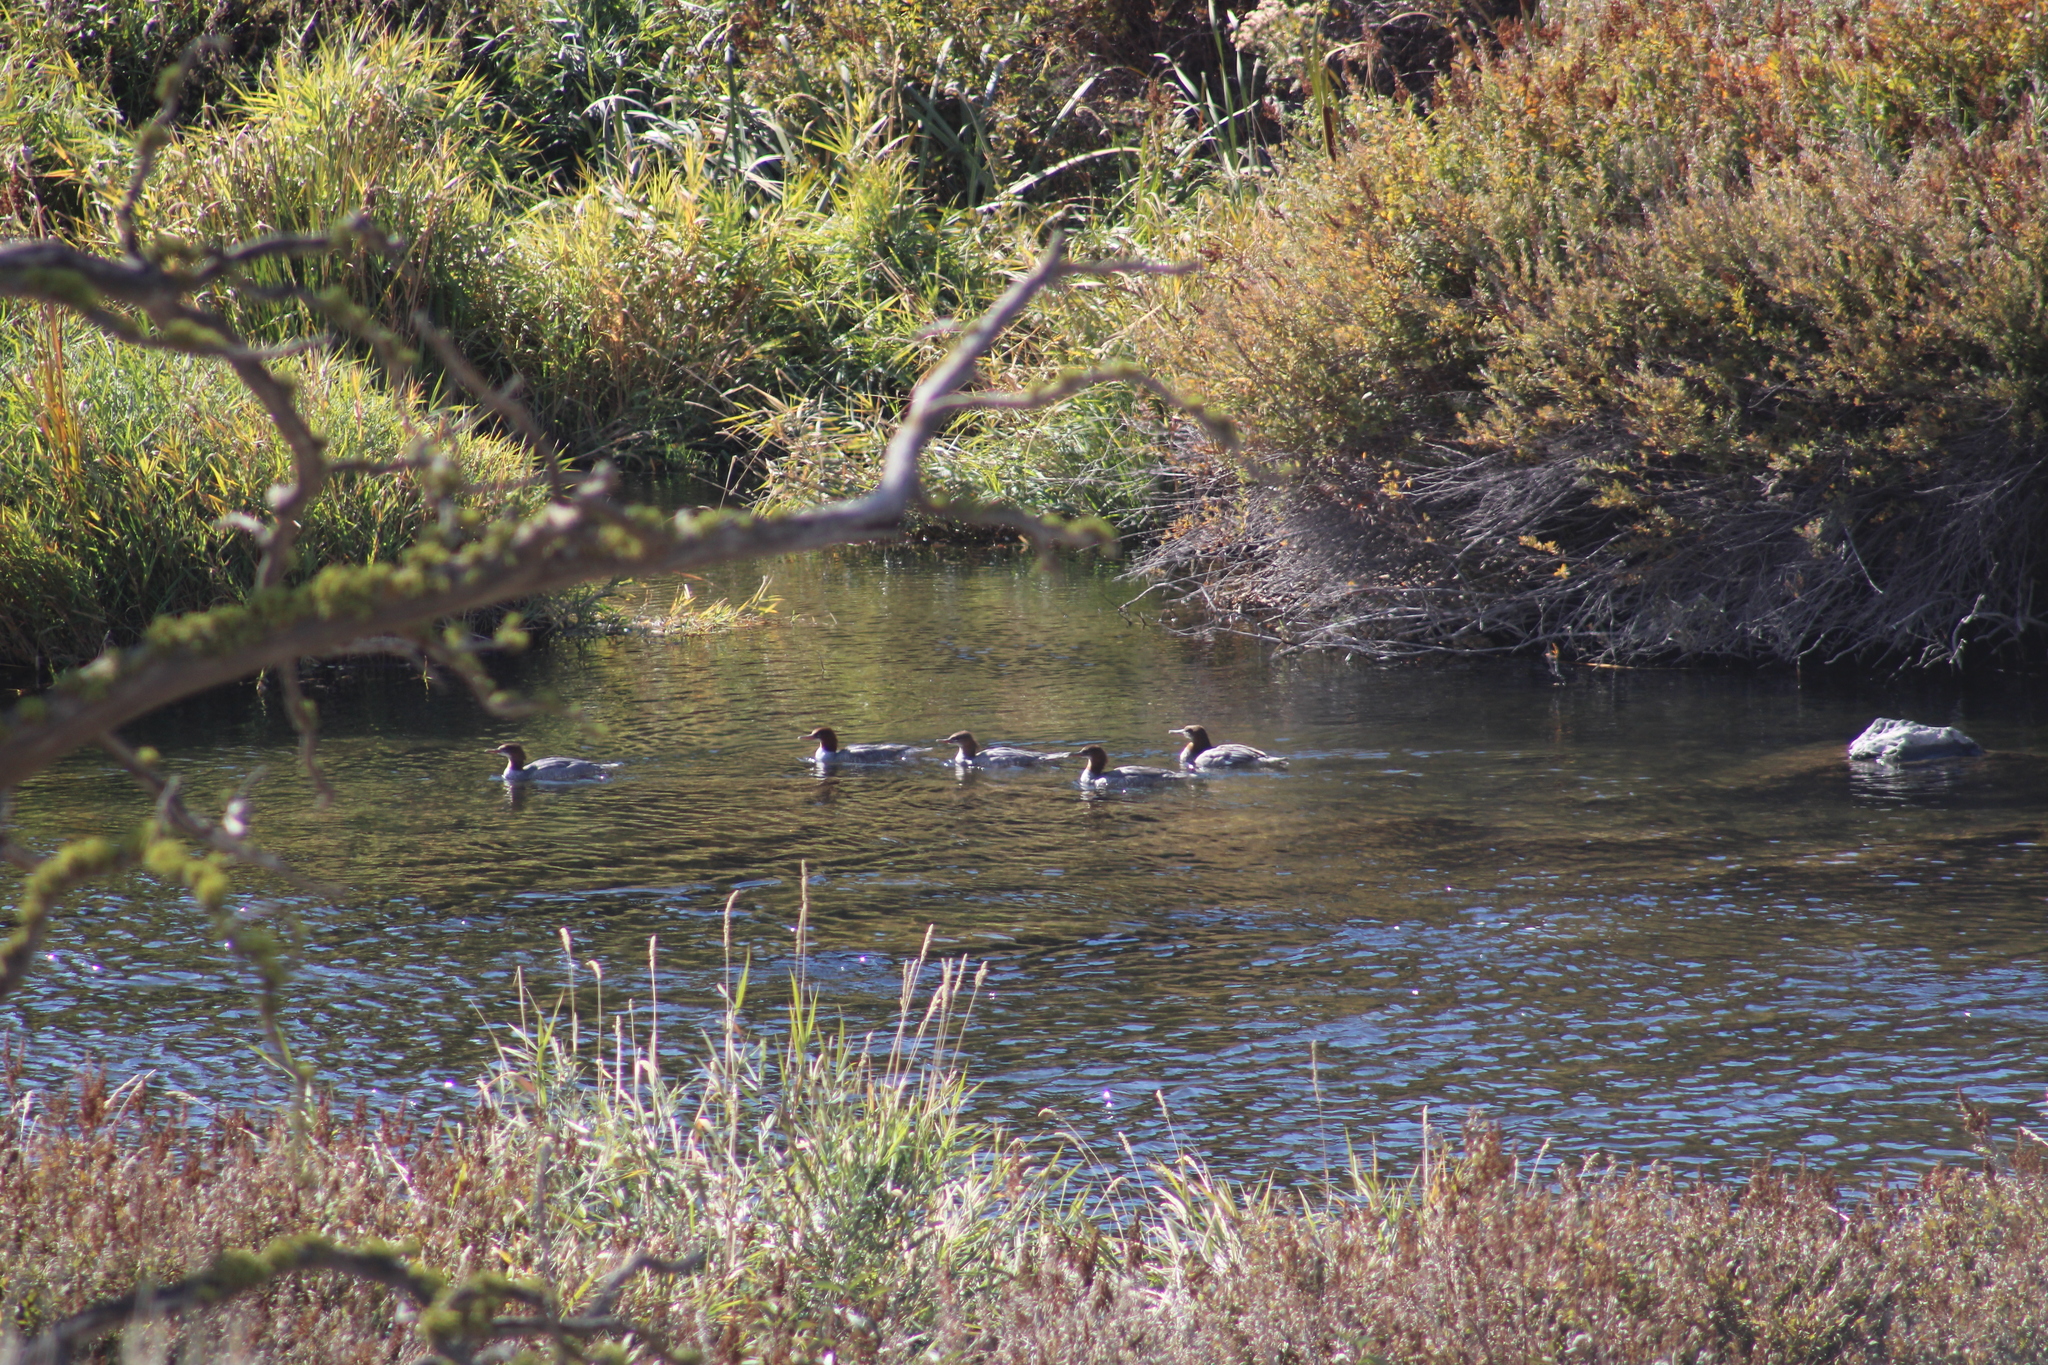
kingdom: Animalia
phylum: Chordata
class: Aves
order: Anseriformes
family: Anatidae
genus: Mergus
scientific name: Mergus merganser
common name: Common merganser
